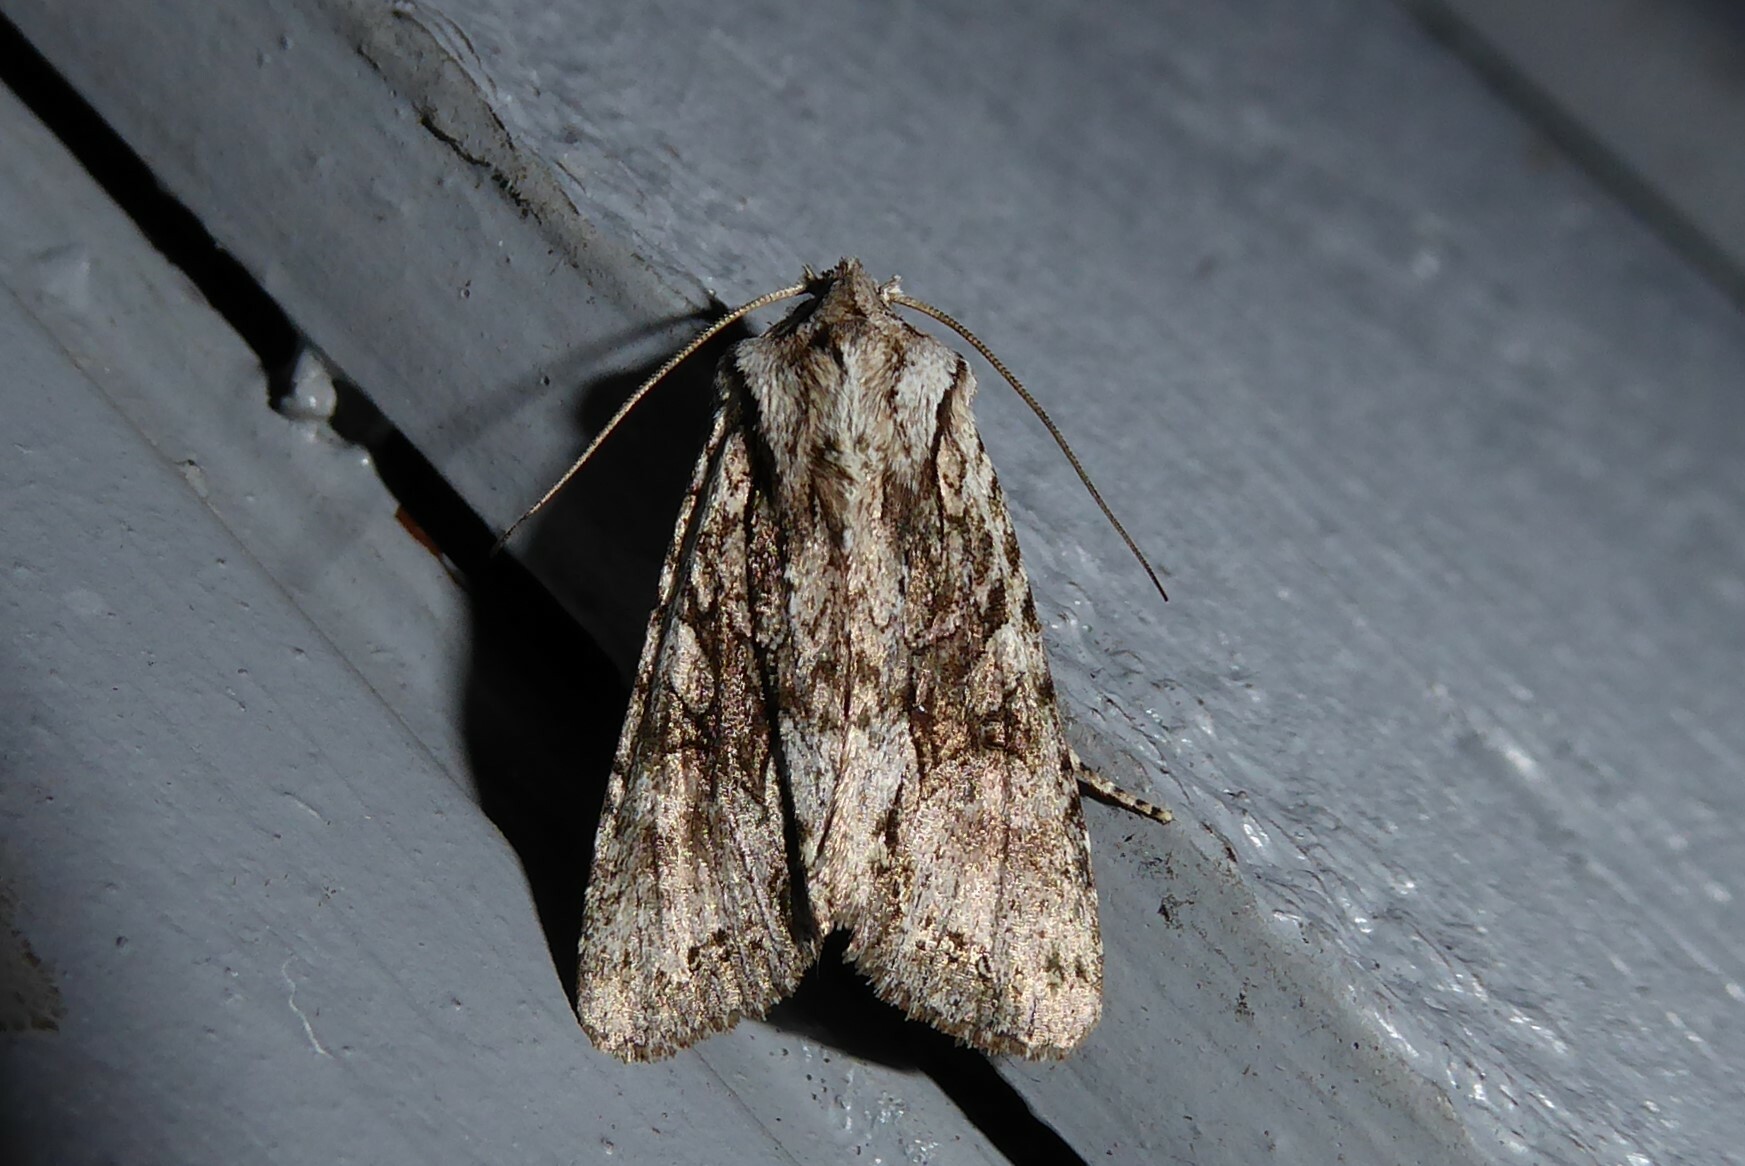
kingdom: Animalia
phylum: Arthropoda
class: Insecta
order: Lepidoptera
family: Noctuidae
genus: Ichneutica
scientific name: Ichneutica mutans
